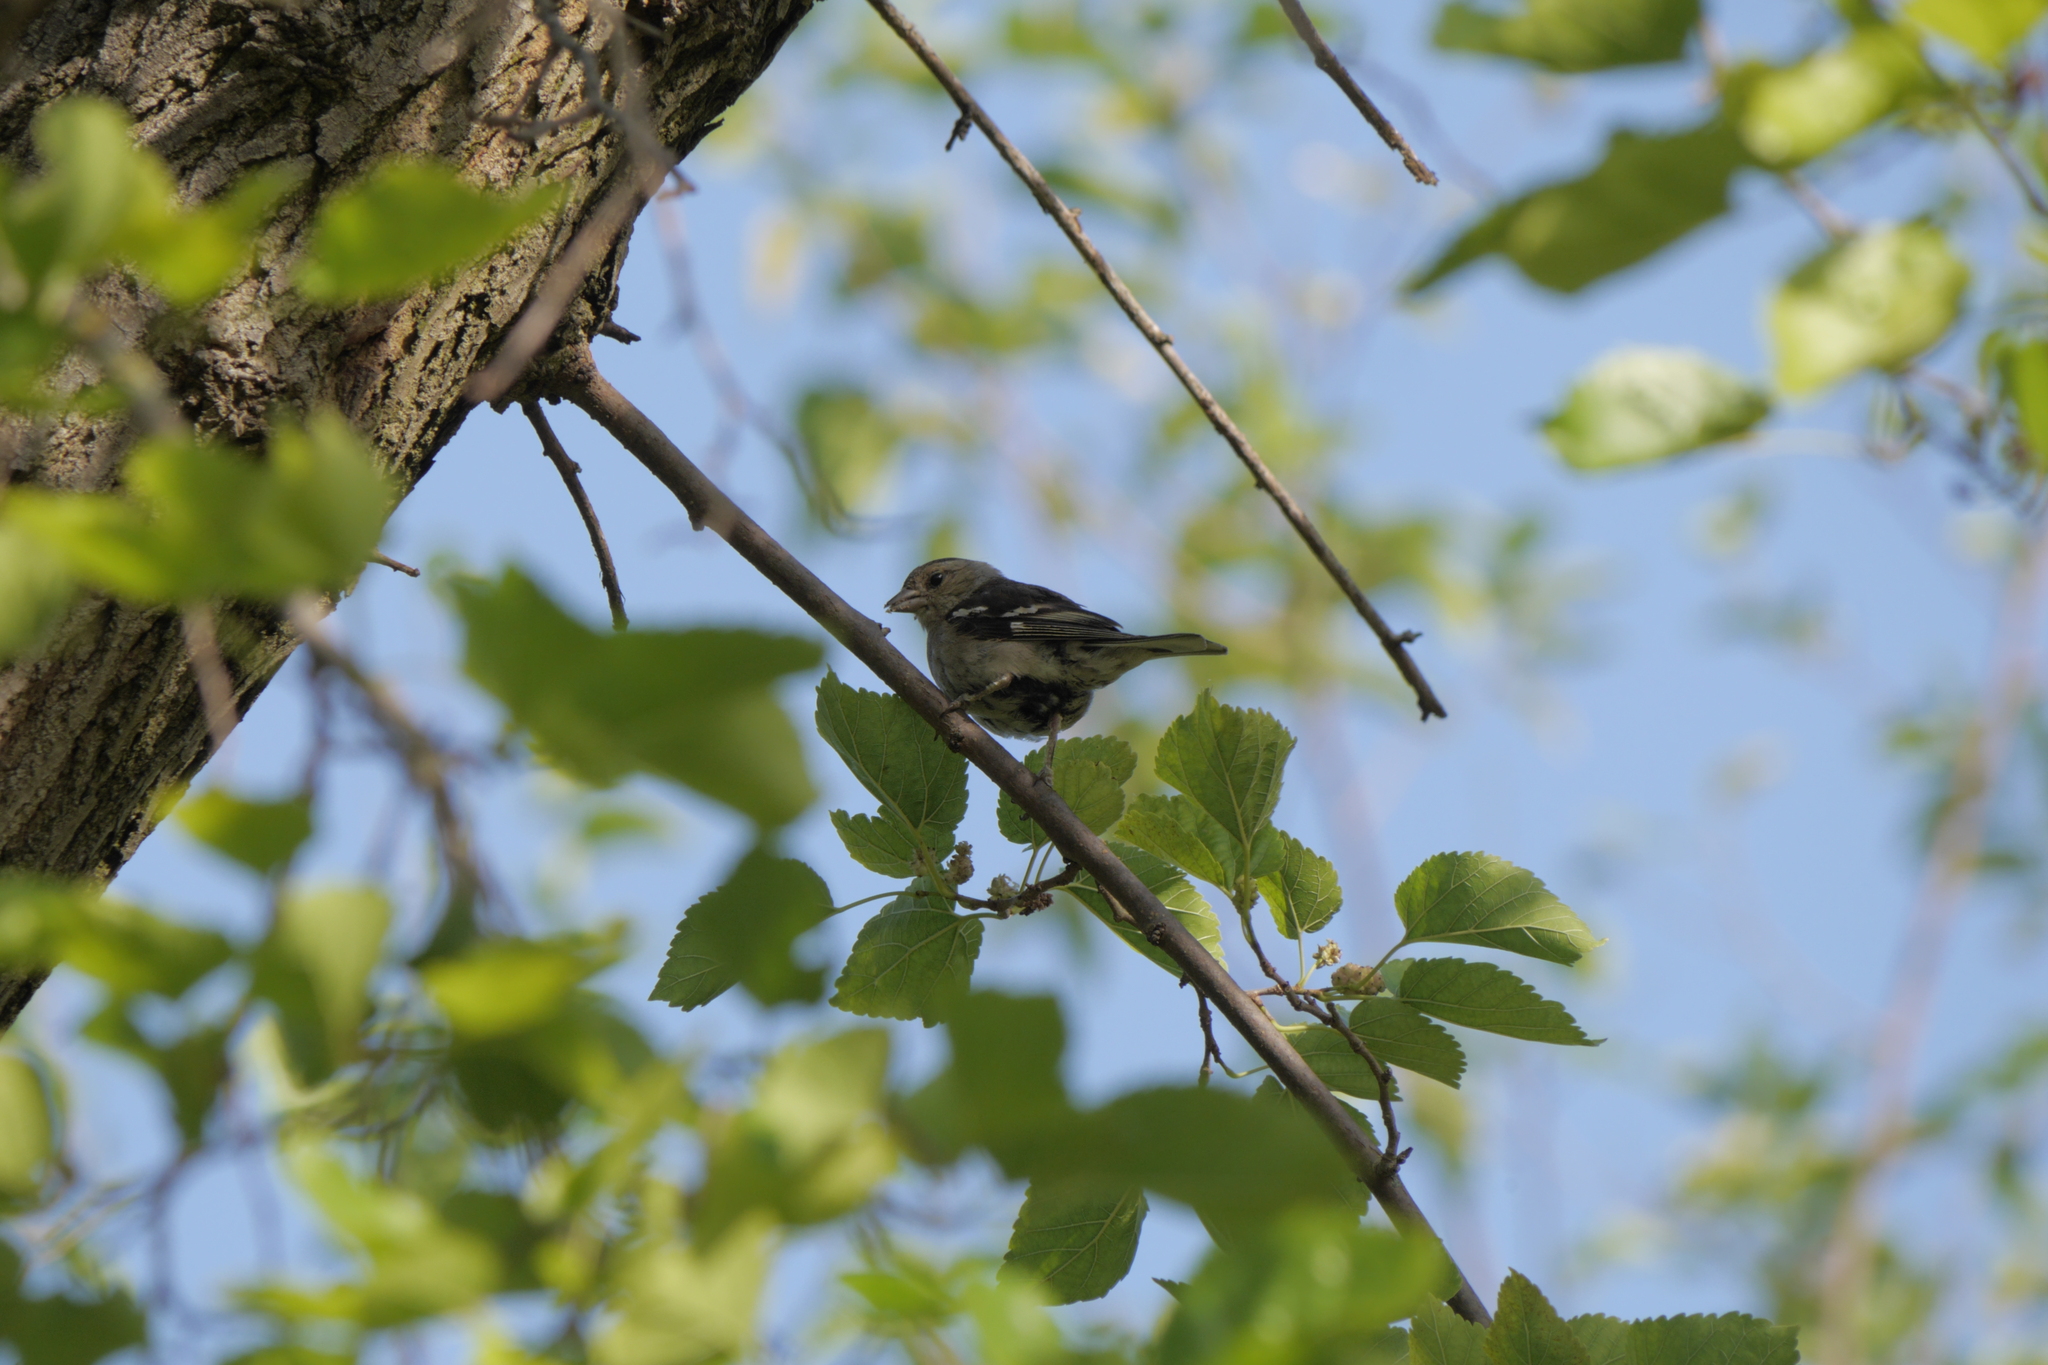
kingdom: Animalia
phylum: Chordata
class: Aves
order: Passeriformes
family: Fringillidae
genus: Fringilla
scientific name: Fringilla coelebs
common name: Common chaffinch
